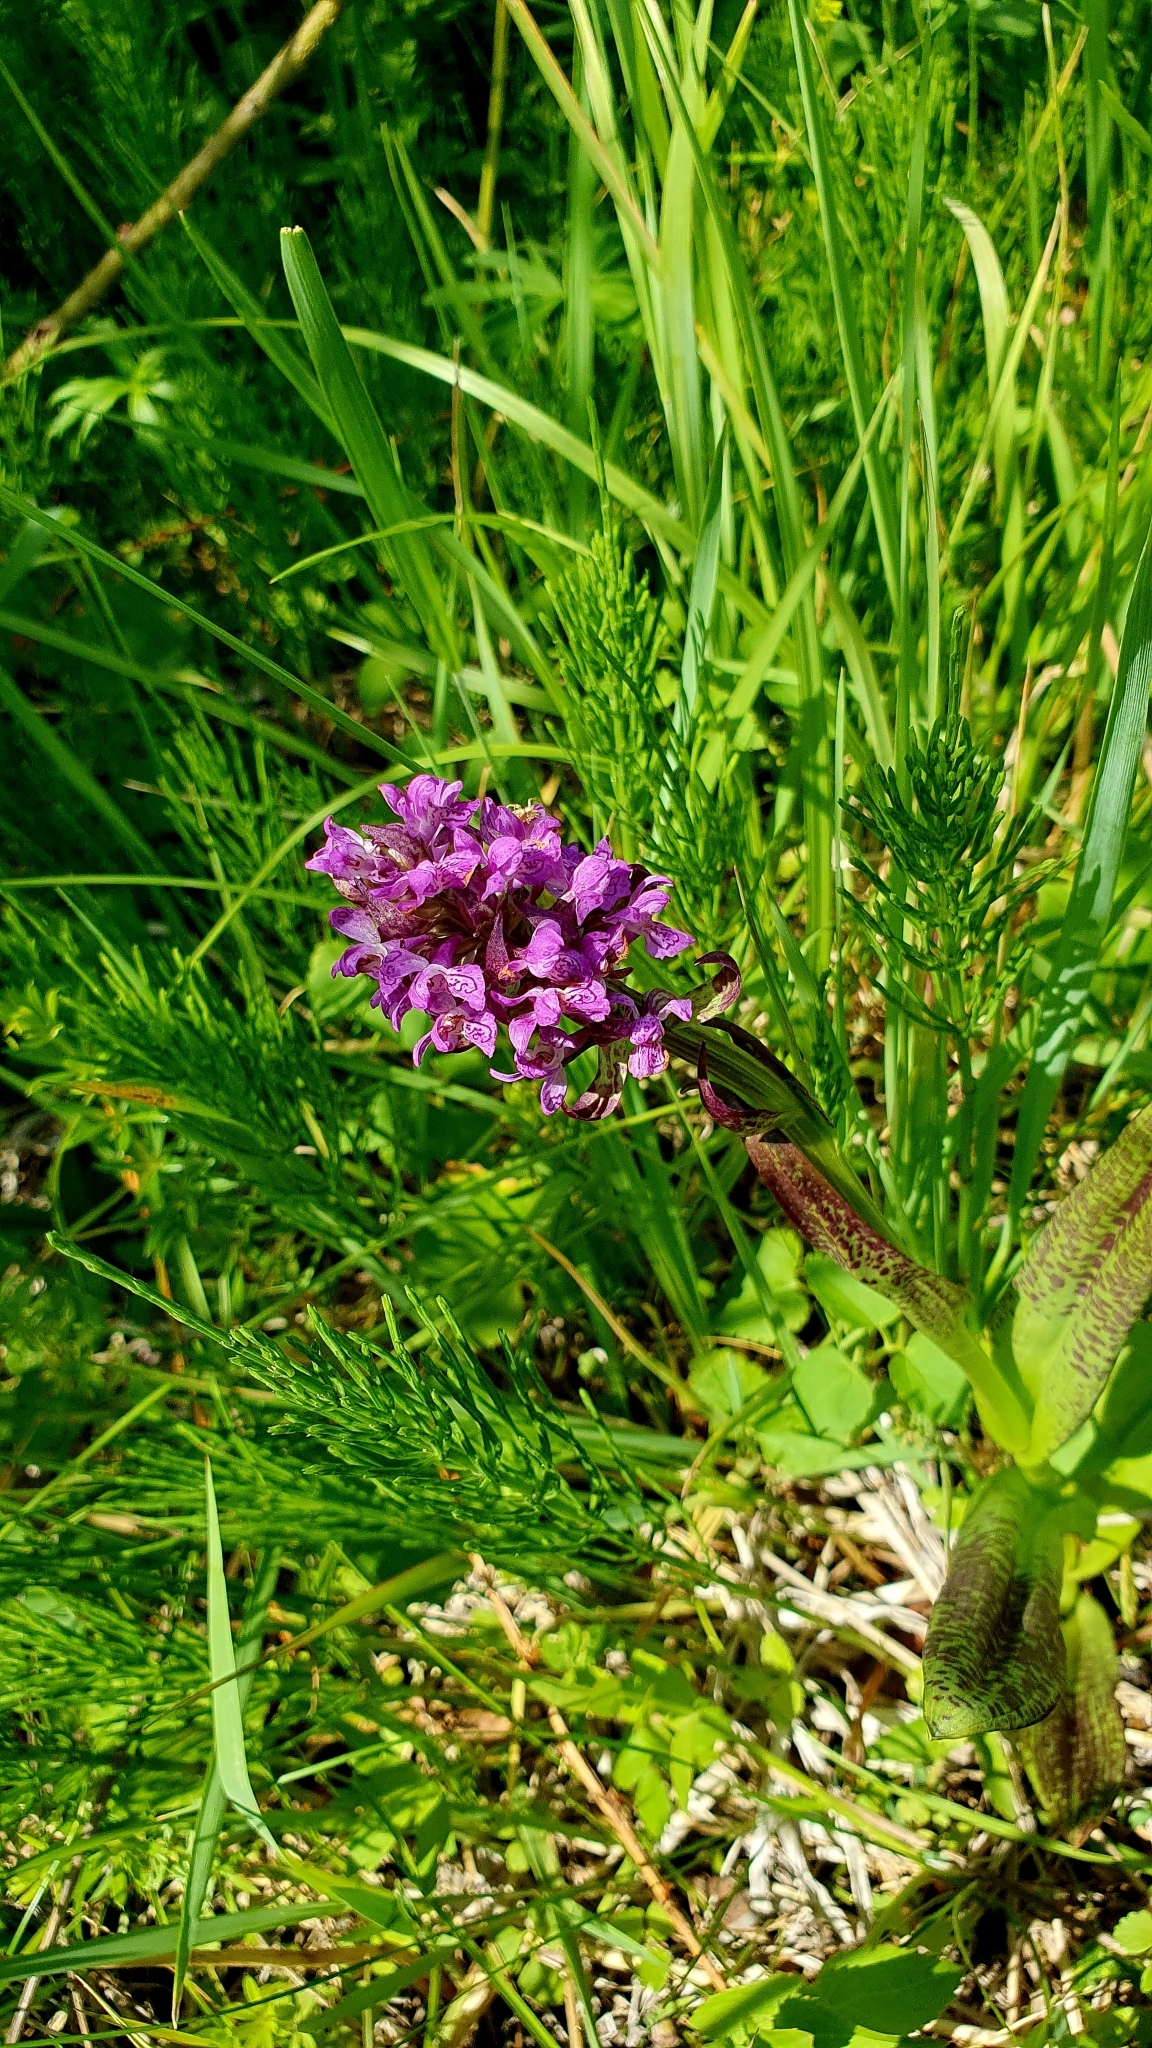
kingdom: Plantae
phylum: Tracheophyta
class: Liliopsida
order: Asparagales
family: Orchidaceae
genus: Dactylorhiza
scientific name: Dactylorhiza incarnata
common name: Early marsh-orchid
